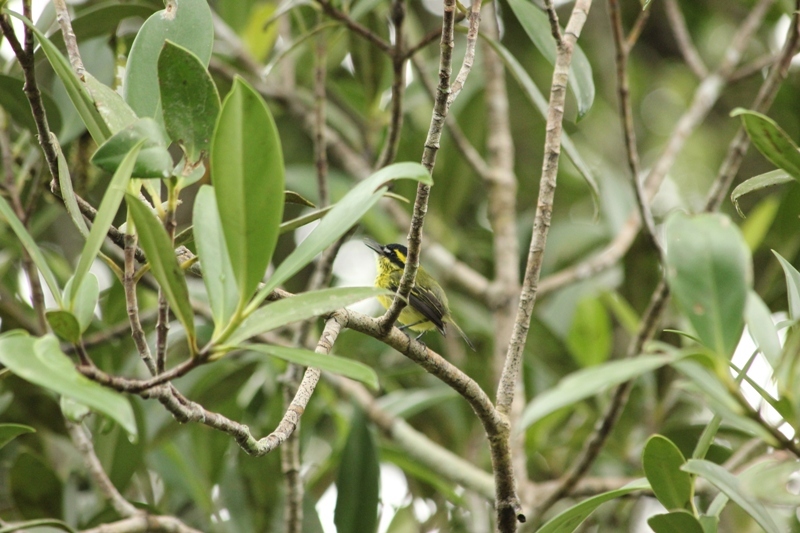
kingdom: Animalia
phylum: Chordata
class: Aves
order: Passeriformes
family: Tyrannidae
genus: Todirostrum
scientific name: Todirostrum chrysocrotaphum
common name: Yellow-browed tody-flycatcher
